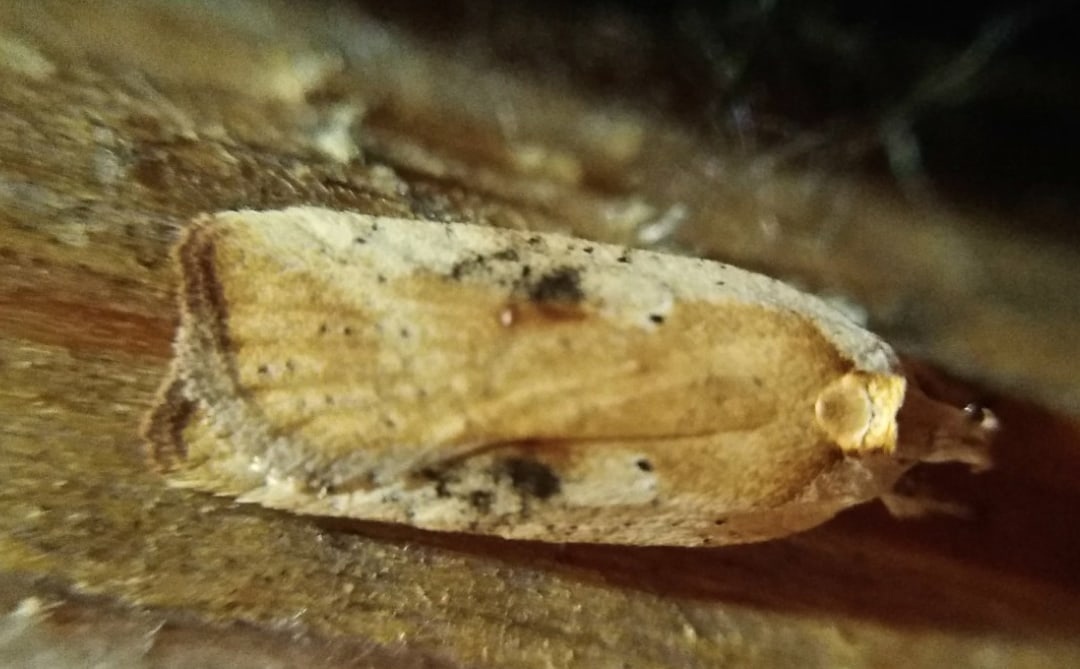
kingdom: Animalia
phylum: Arthropoda
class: Insecta
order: Lepidoptera
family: Depressariidae
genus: Agonopterix
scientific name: Agonopterix nervosa
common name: Gorse tip moth
